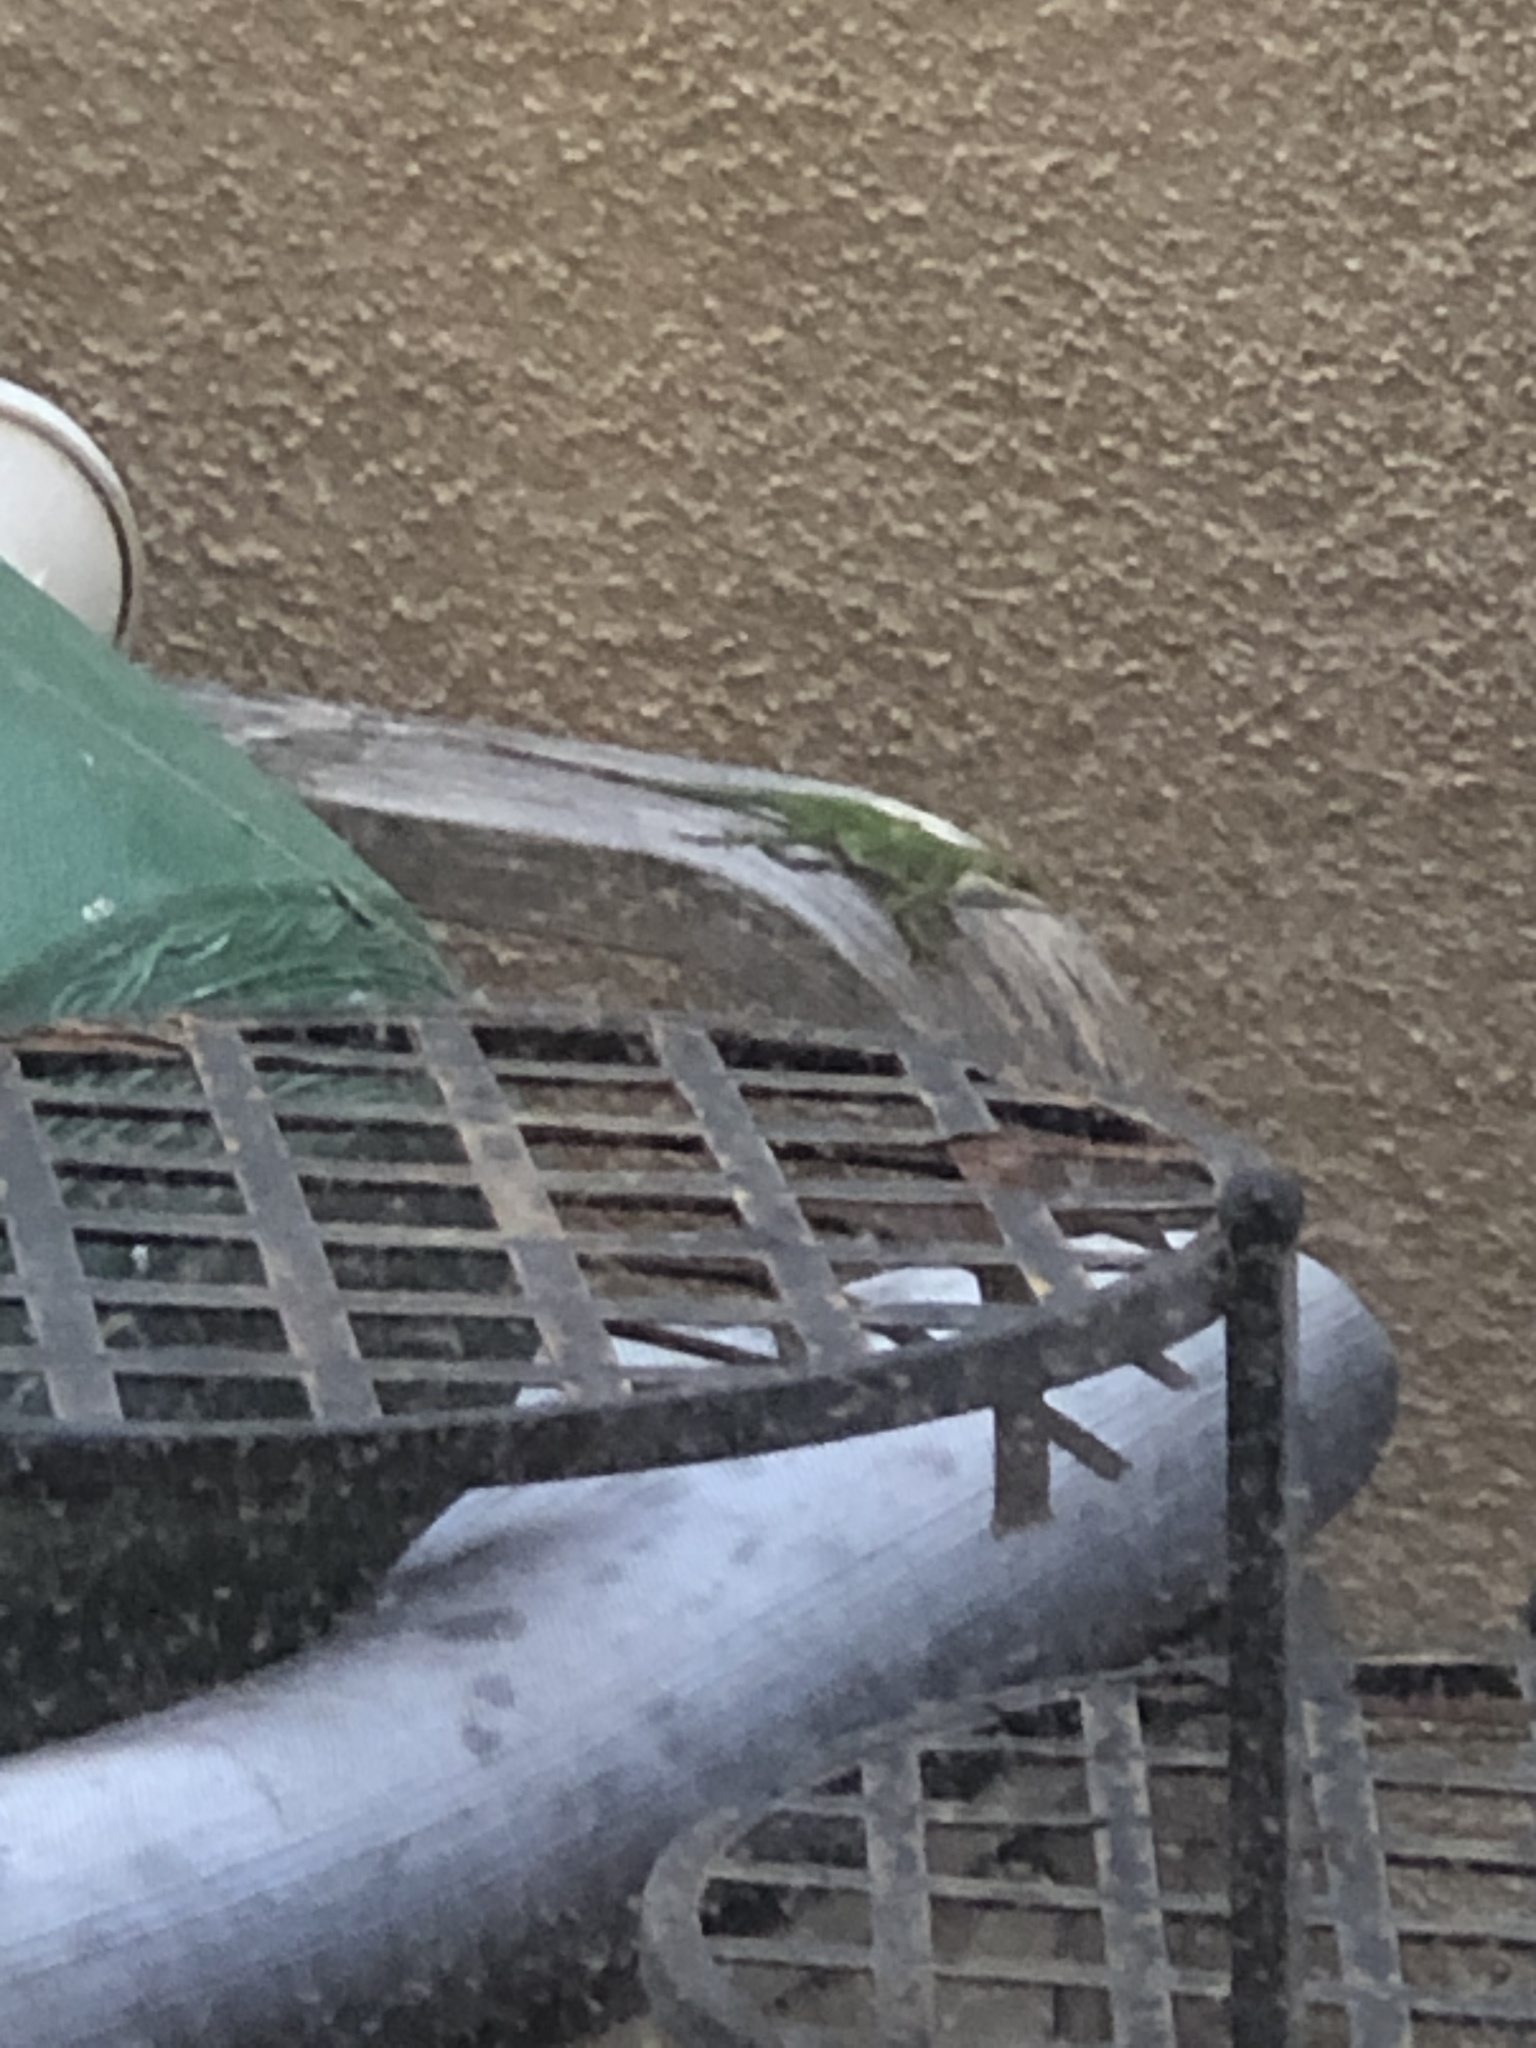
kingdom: Animalia
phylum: Chordata
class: Squamata
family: Dactyloidae
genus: Anolis
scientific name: Anolis carolinensis
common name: Green anole
